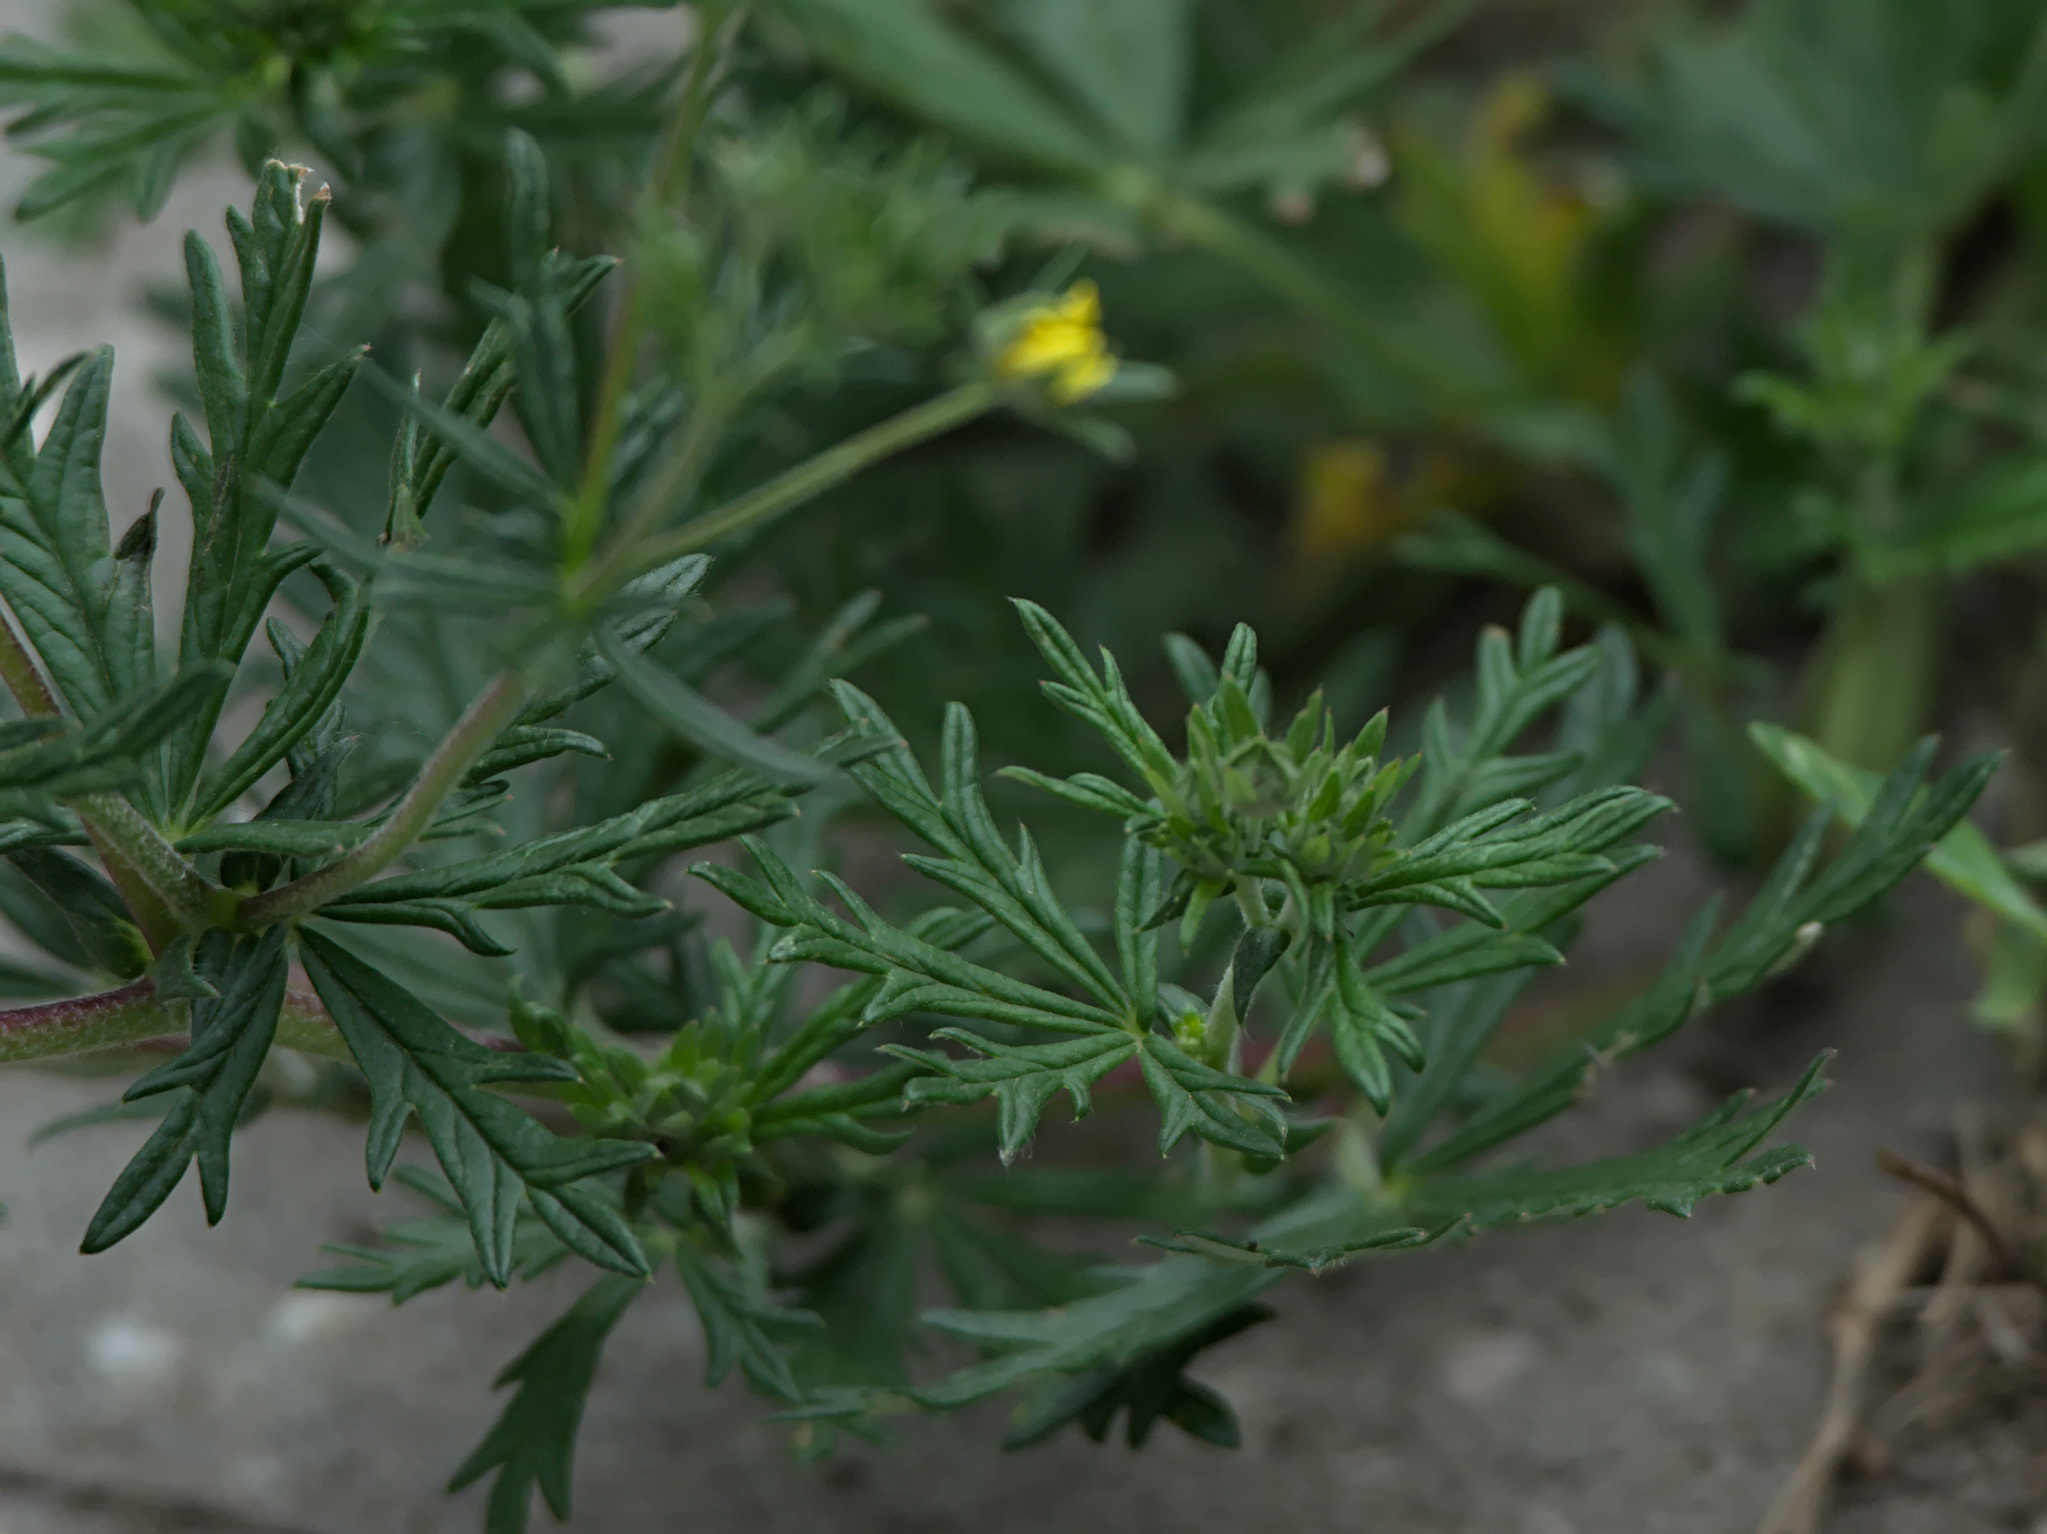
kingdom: Plantae
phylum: Tracheophyta
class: Magnoliopsida
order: Rosales
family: Rosaceae
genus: Potentilla
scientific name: Potentilla argentea
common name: Hoary cinquefoil
